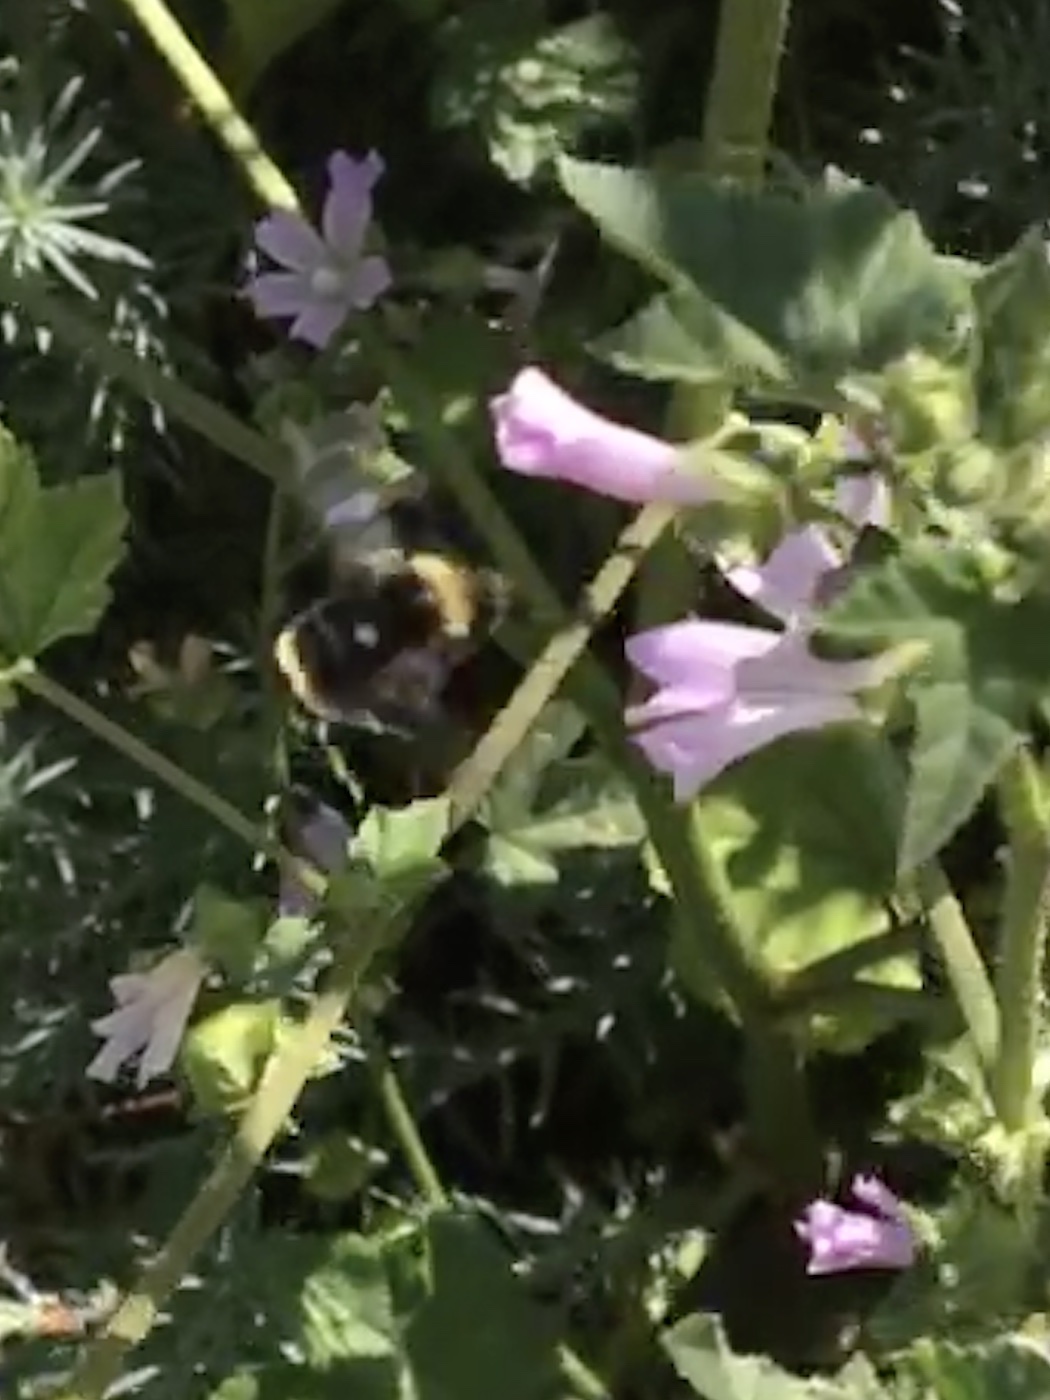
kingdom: Animalia
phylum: Arthropoda
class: Insecta
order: Hymenoptera
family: Apidae
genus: Bombus
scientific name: Bombus vosnesenskii
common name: Vosnesensky bumble bee
